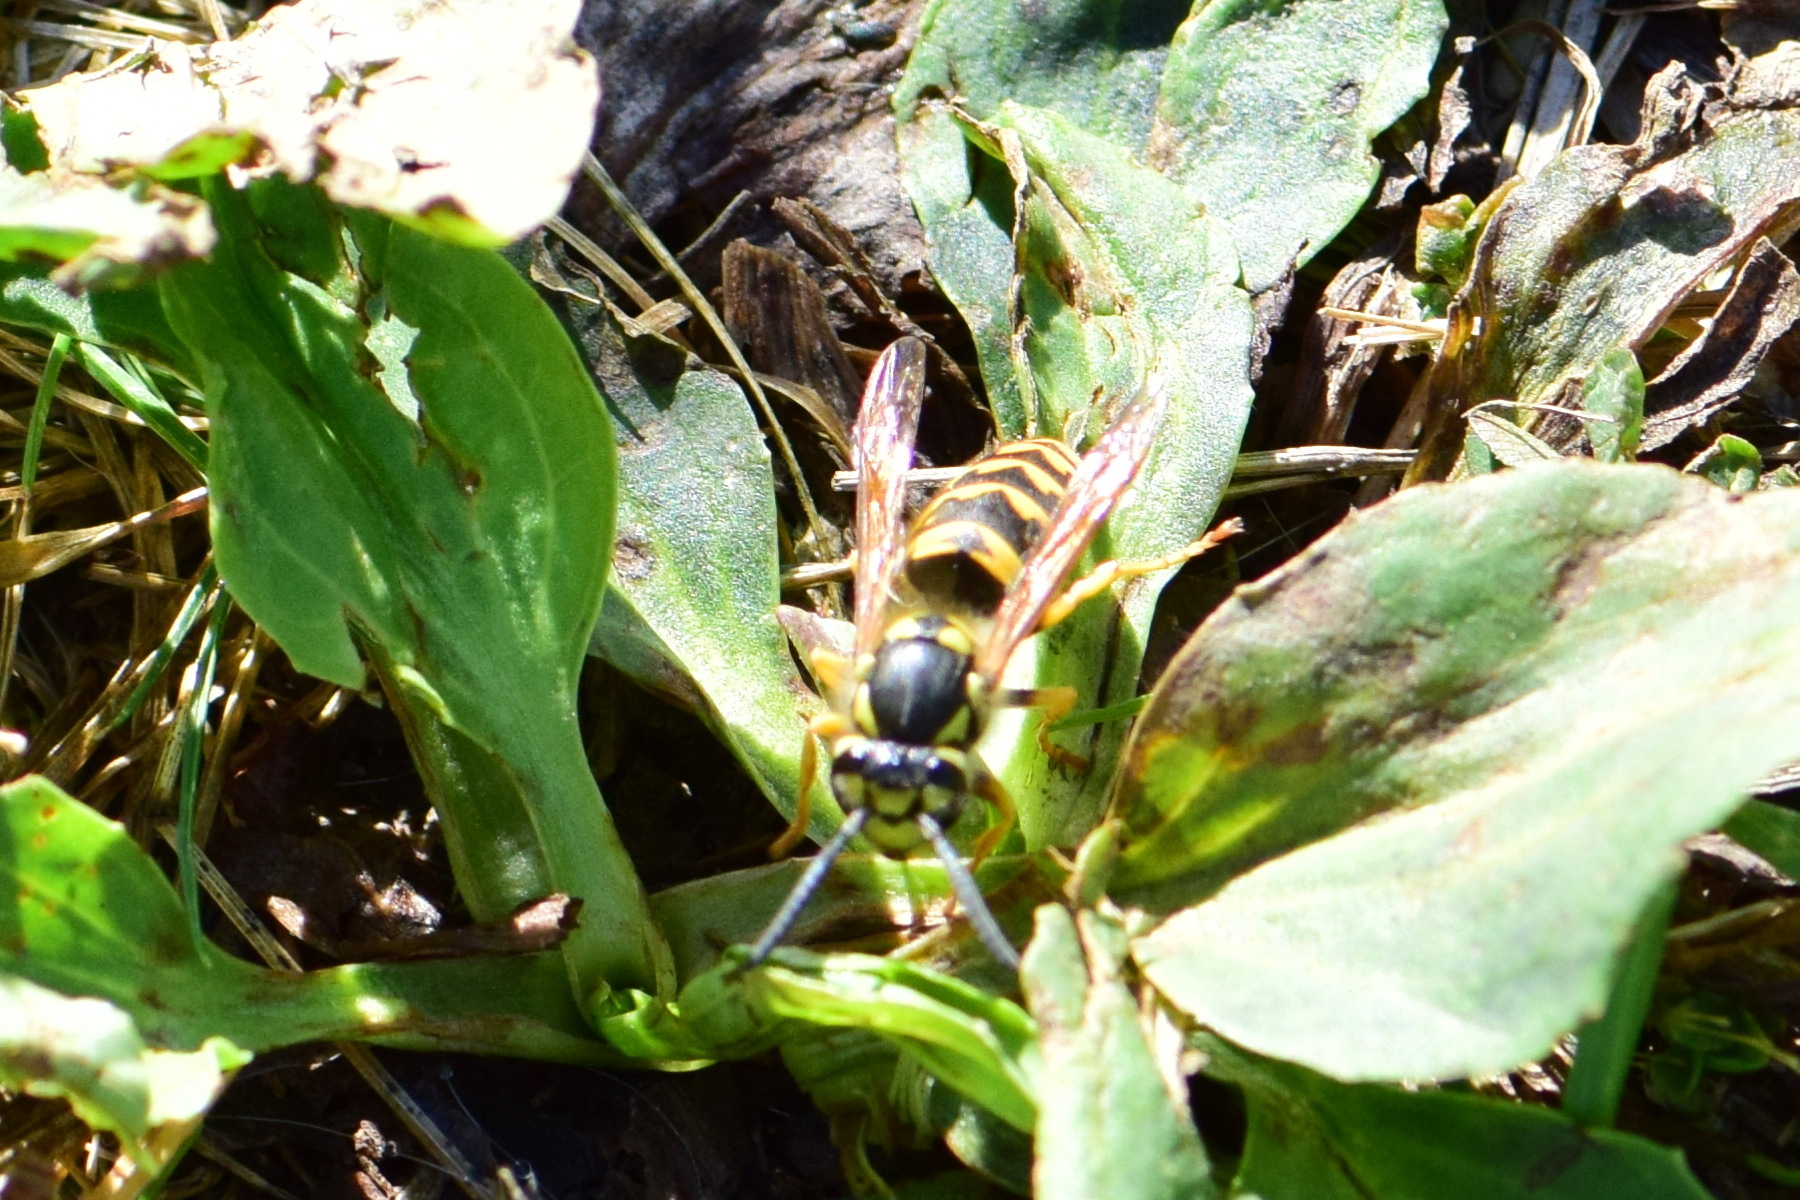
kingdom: Animalia
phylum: Arthropoda
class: Insecta
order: Hymenoptera
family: Vespidae
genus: Vespula
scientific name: Vespula germanica
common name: German wasp
